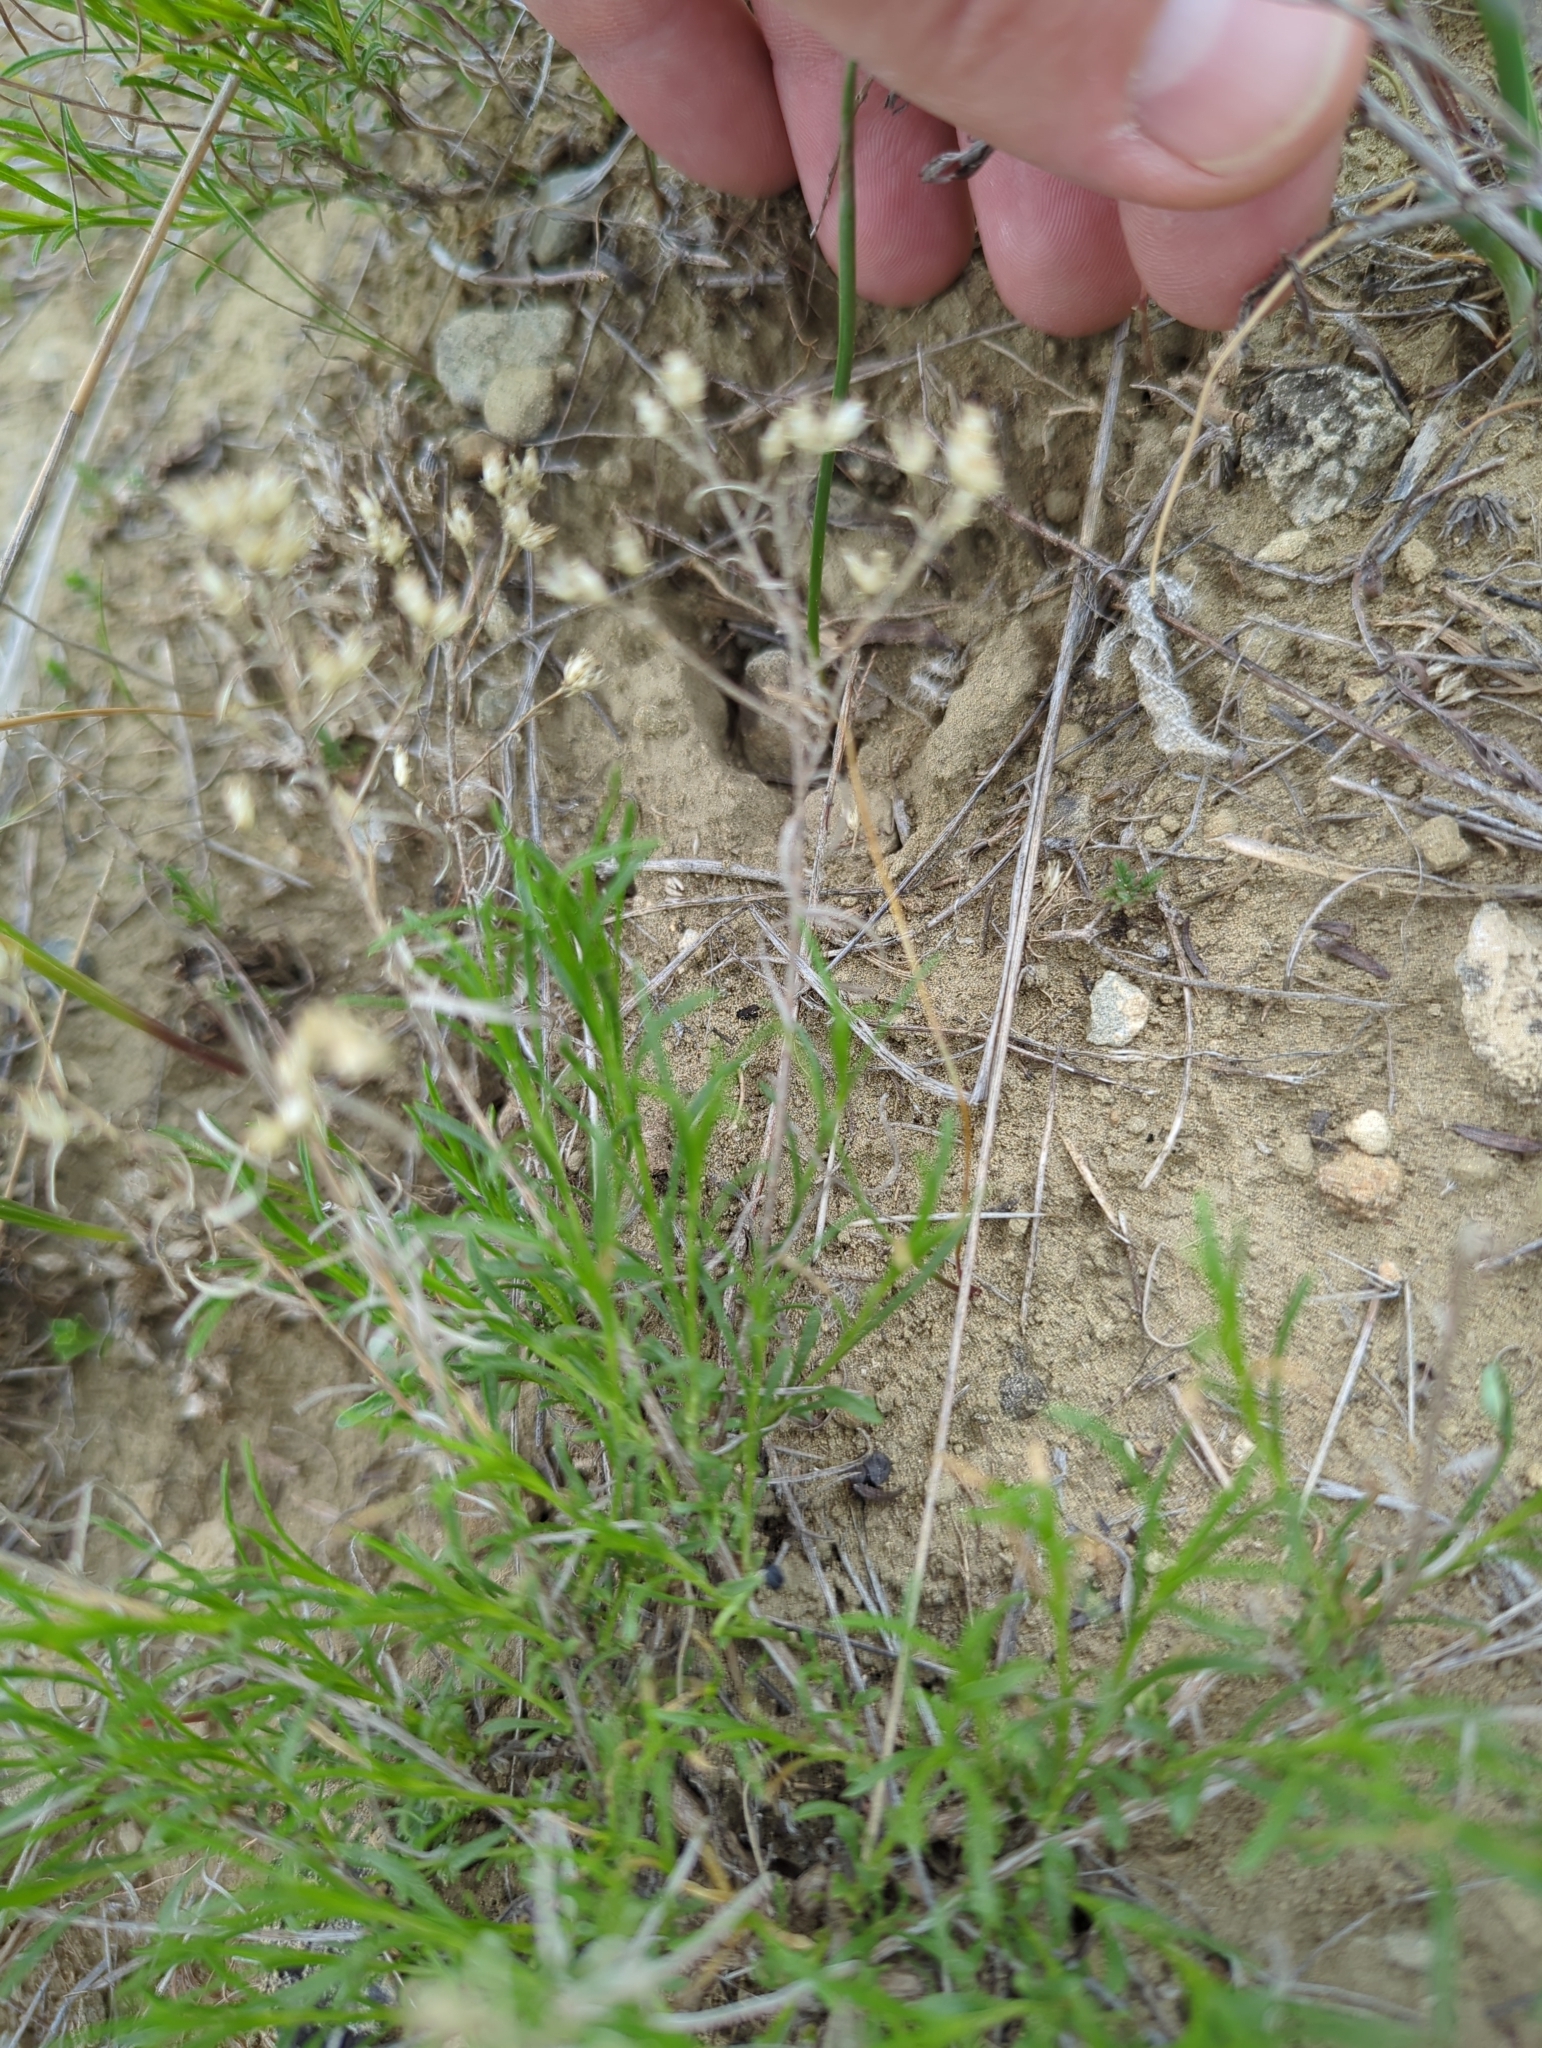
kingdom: Plantae
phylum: Tracheophyta
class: Magnoliopsida
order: Asterales
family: Asteraceae
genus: Gutierrezia
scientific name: Gutierrezia sarothrae
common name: Broom snakeweed
